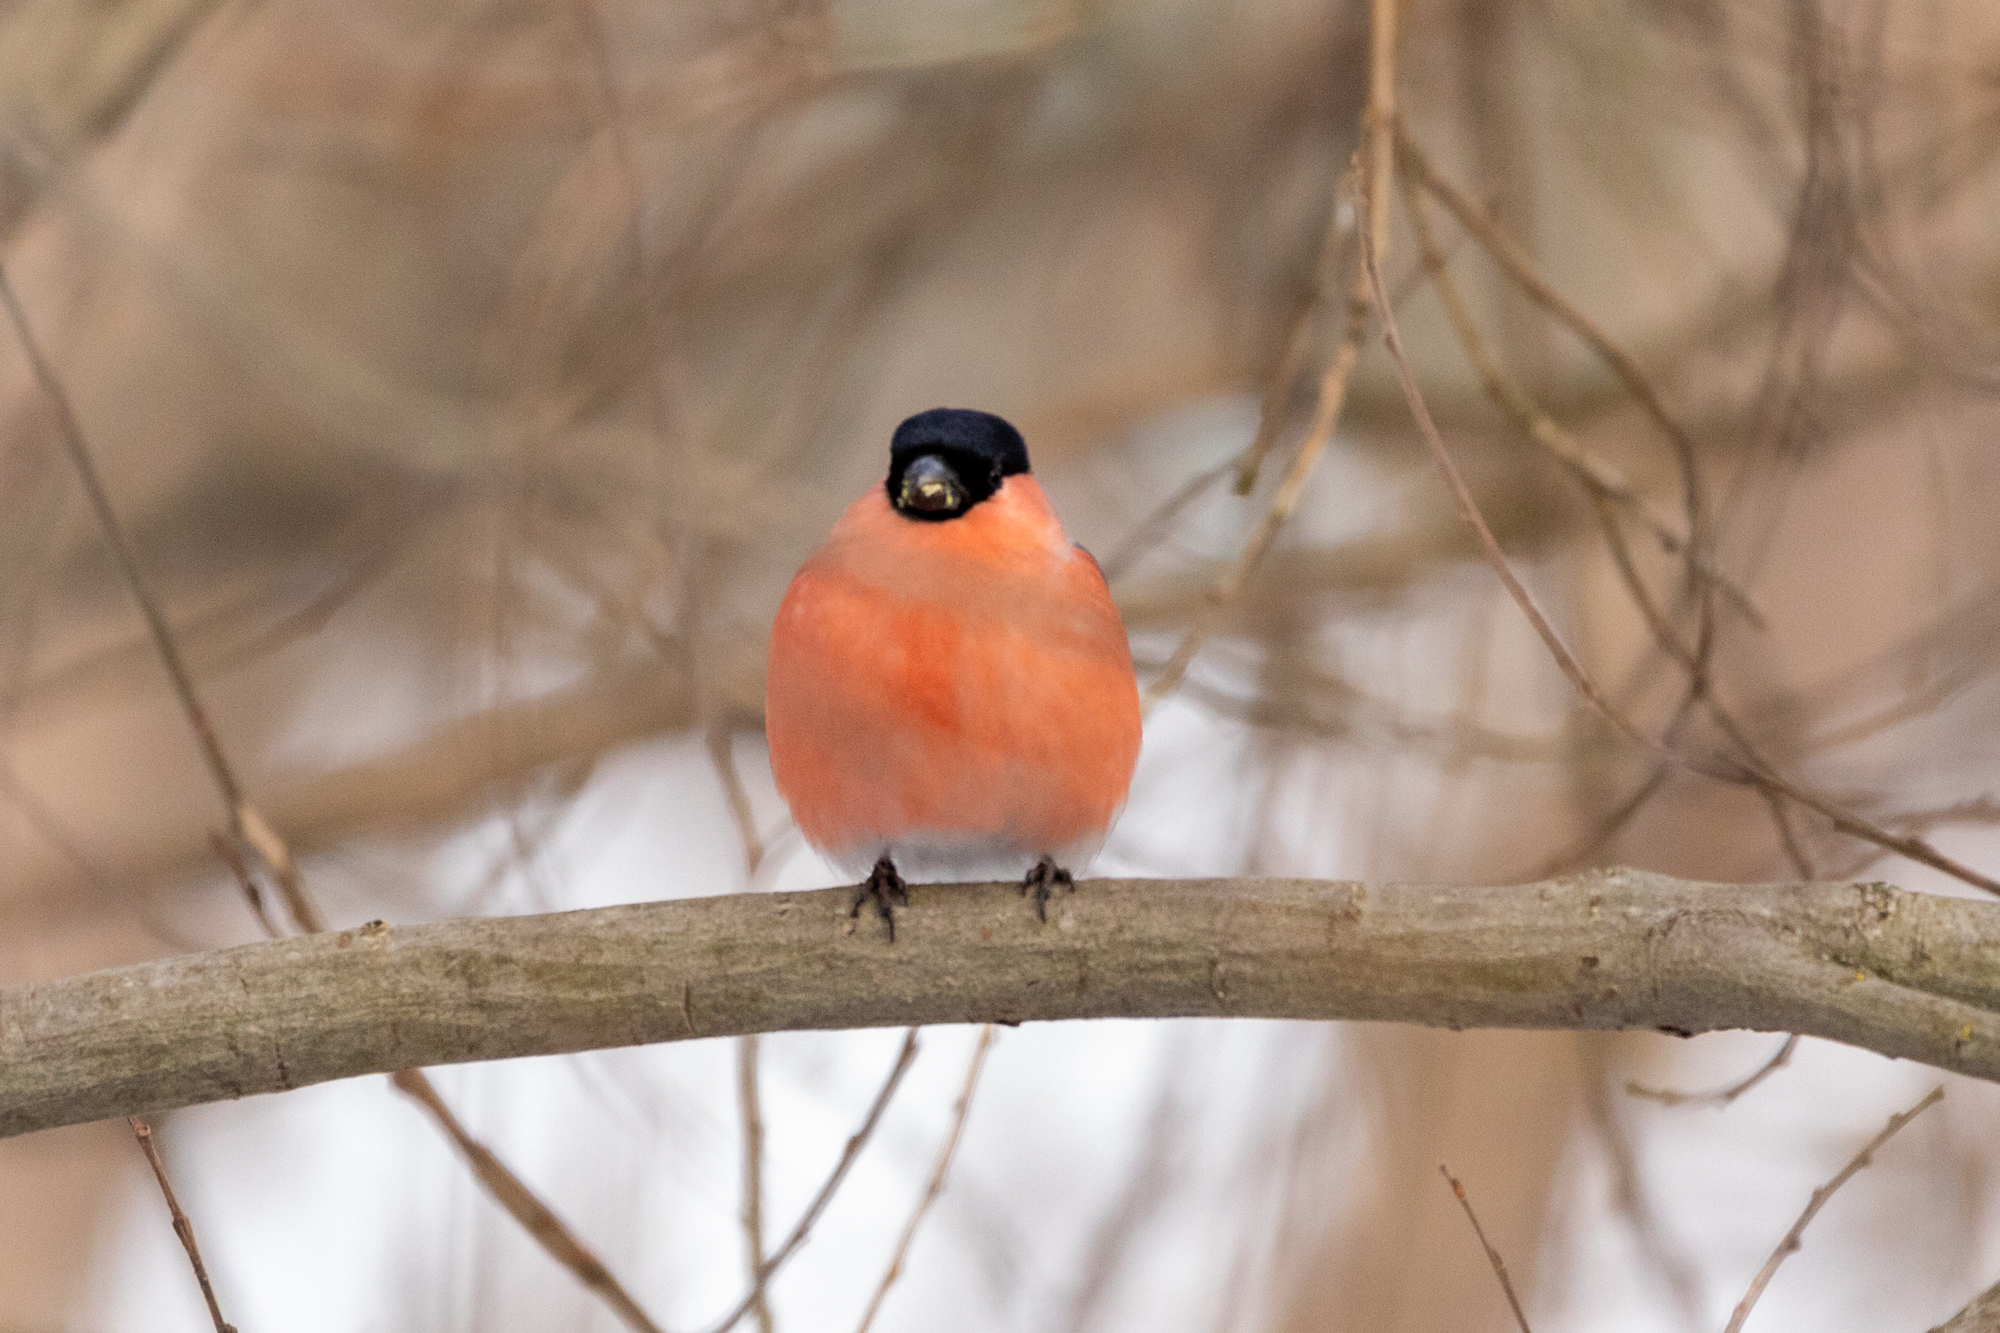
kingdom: Animalia
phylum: Chordata
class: Aves
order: Passeriformes
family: Fringillidae
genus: Pyrrhula
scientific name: Pyrrhula pyrrhula
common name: Eurasian bullfinch
